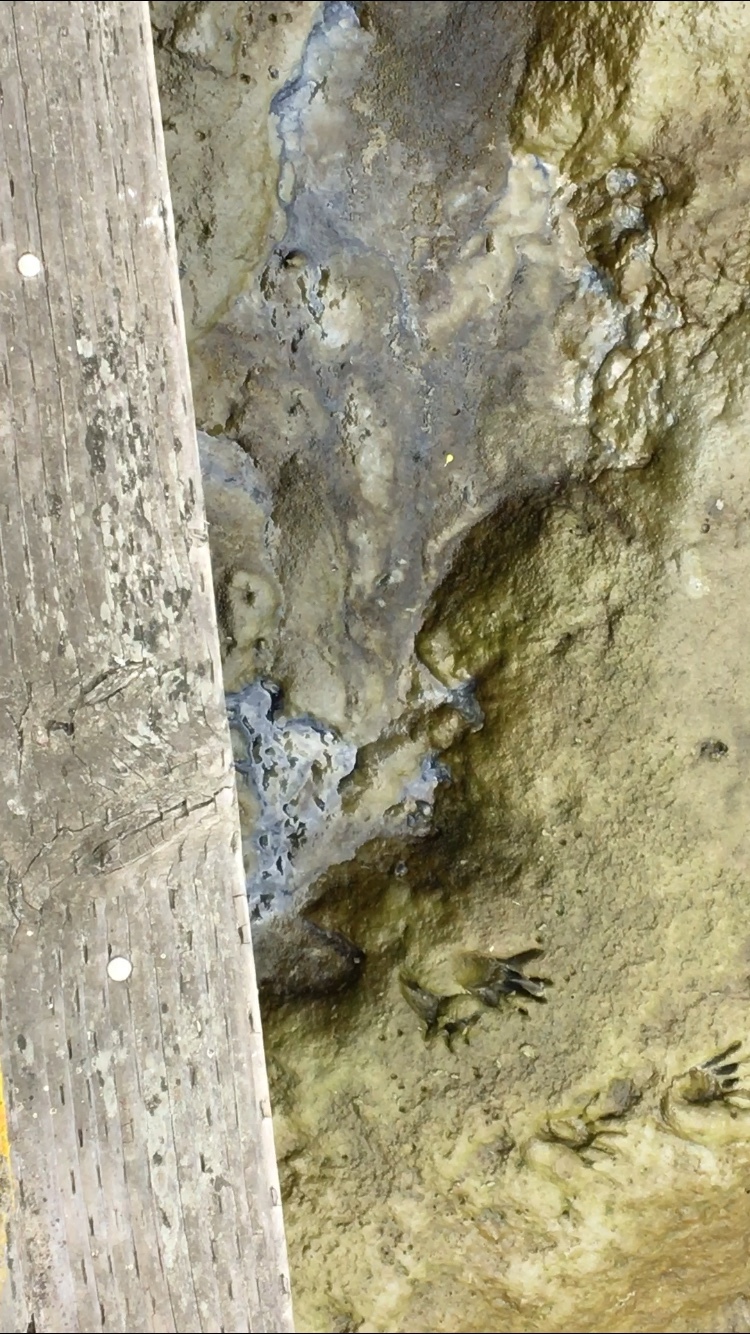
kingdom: Animalia
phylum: Mollusca
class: Gastropoda
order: Neogastropoda
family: Nassariidae
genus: Ilyanassa
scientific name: Ilyanassa obsoleta
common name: Eastern mudsnail
